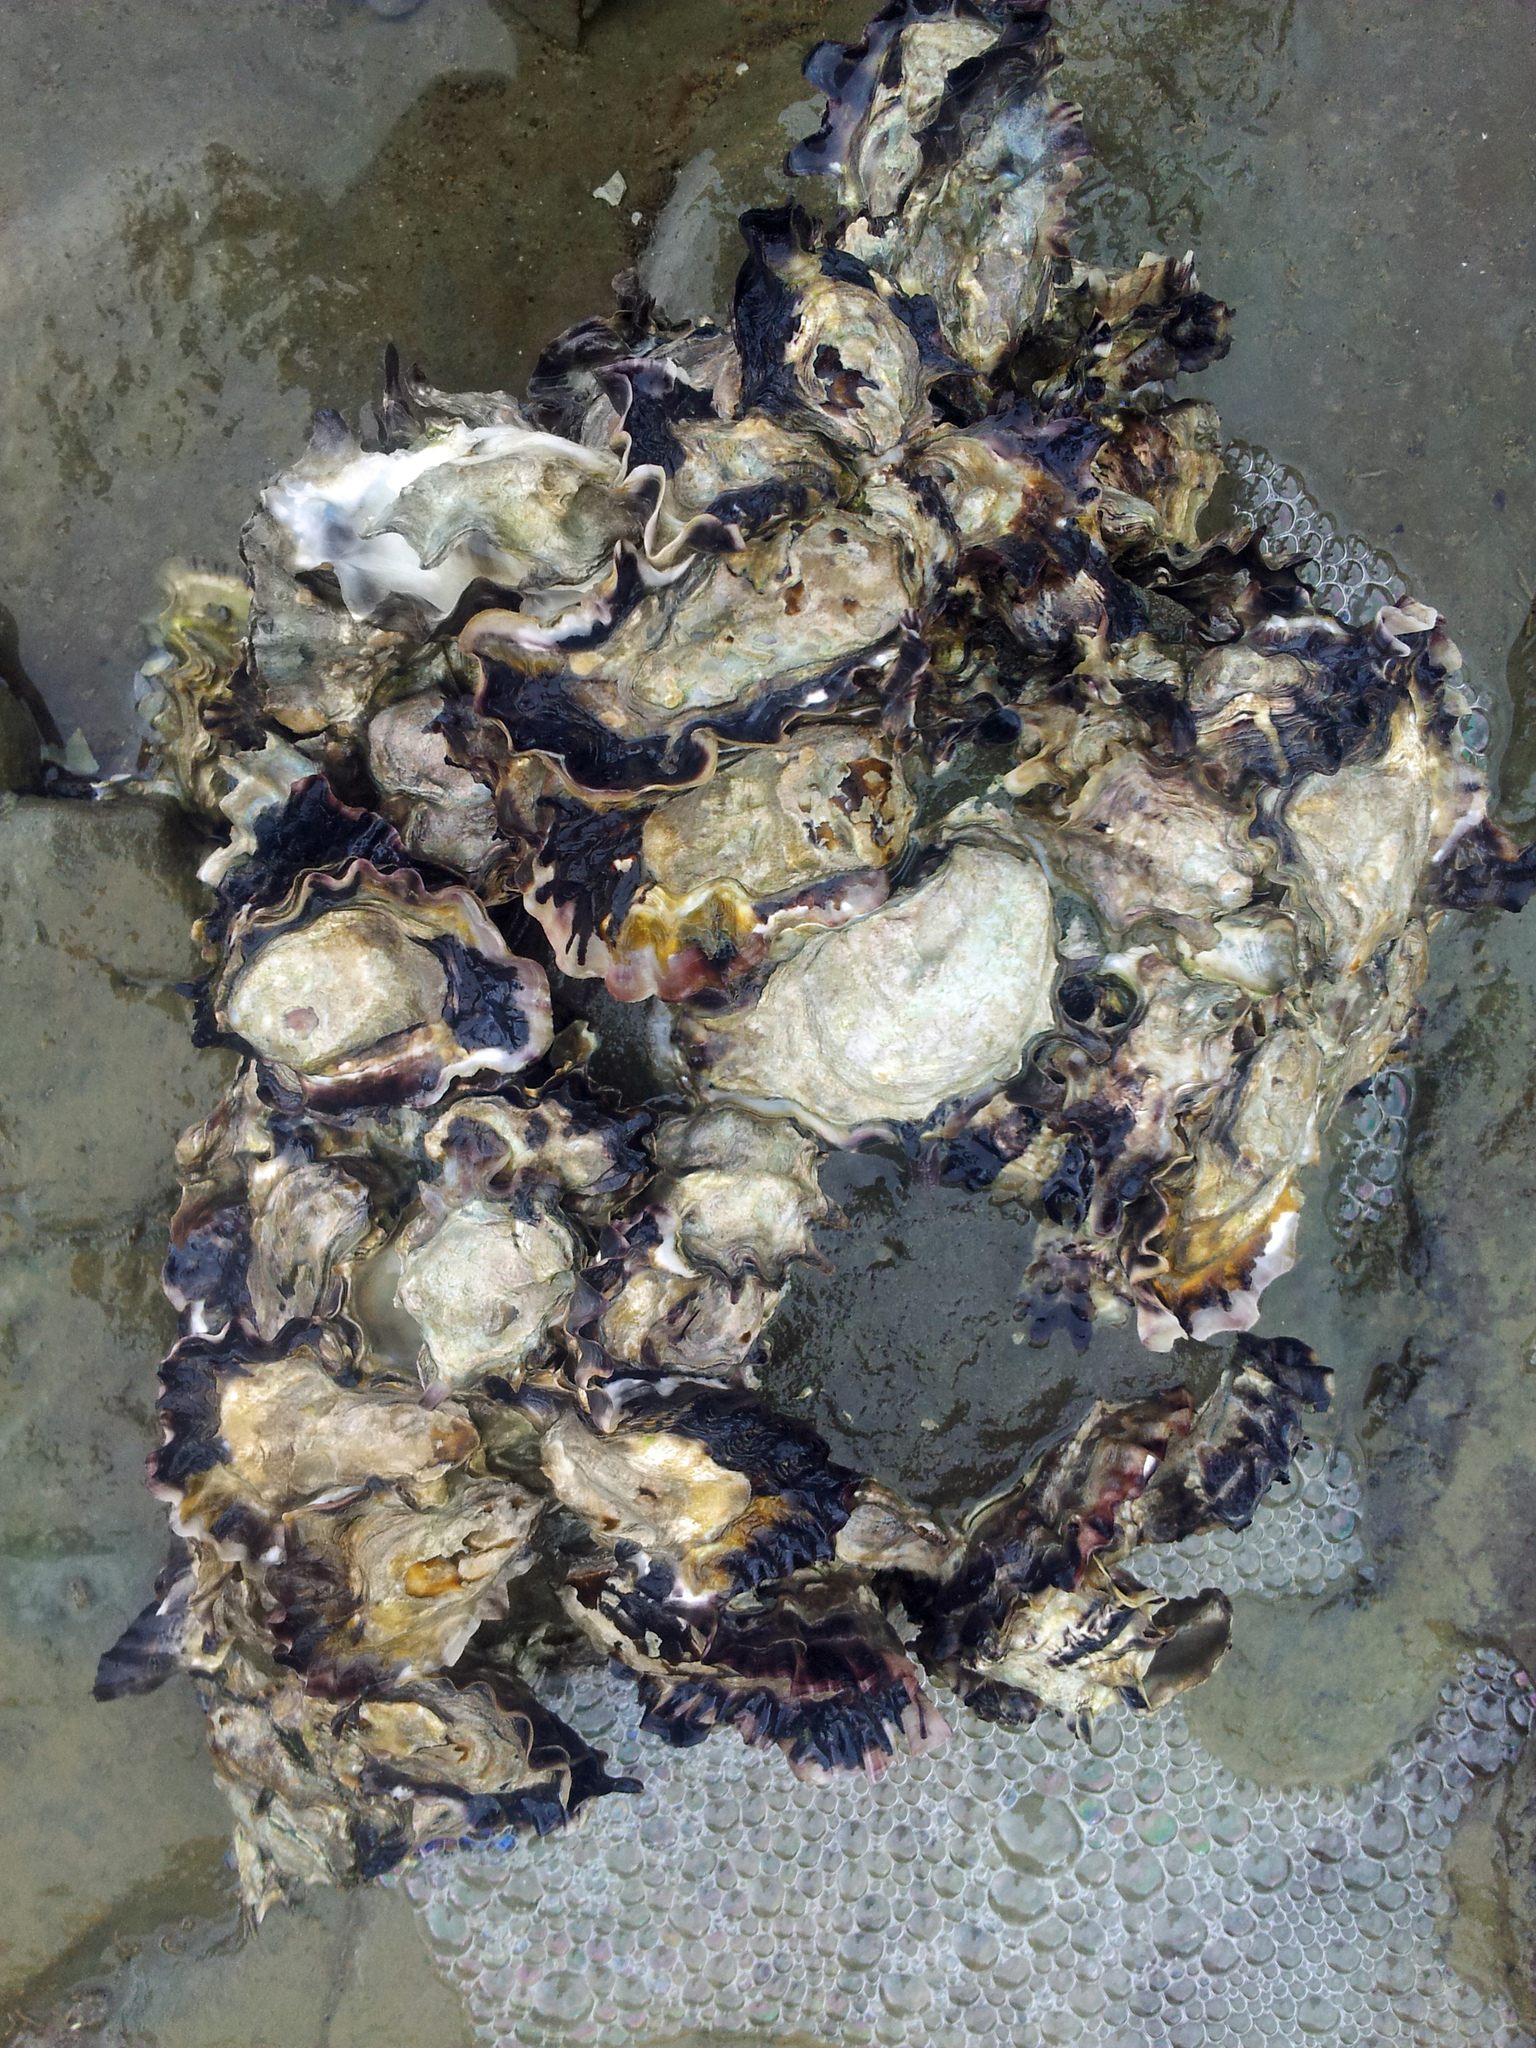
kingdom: Animalia
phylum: Mollusca
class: Bivalvia
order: Ostreida
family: Ostreidae
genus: Magallana
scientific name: Magallana gigas
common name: Pacific oyster
